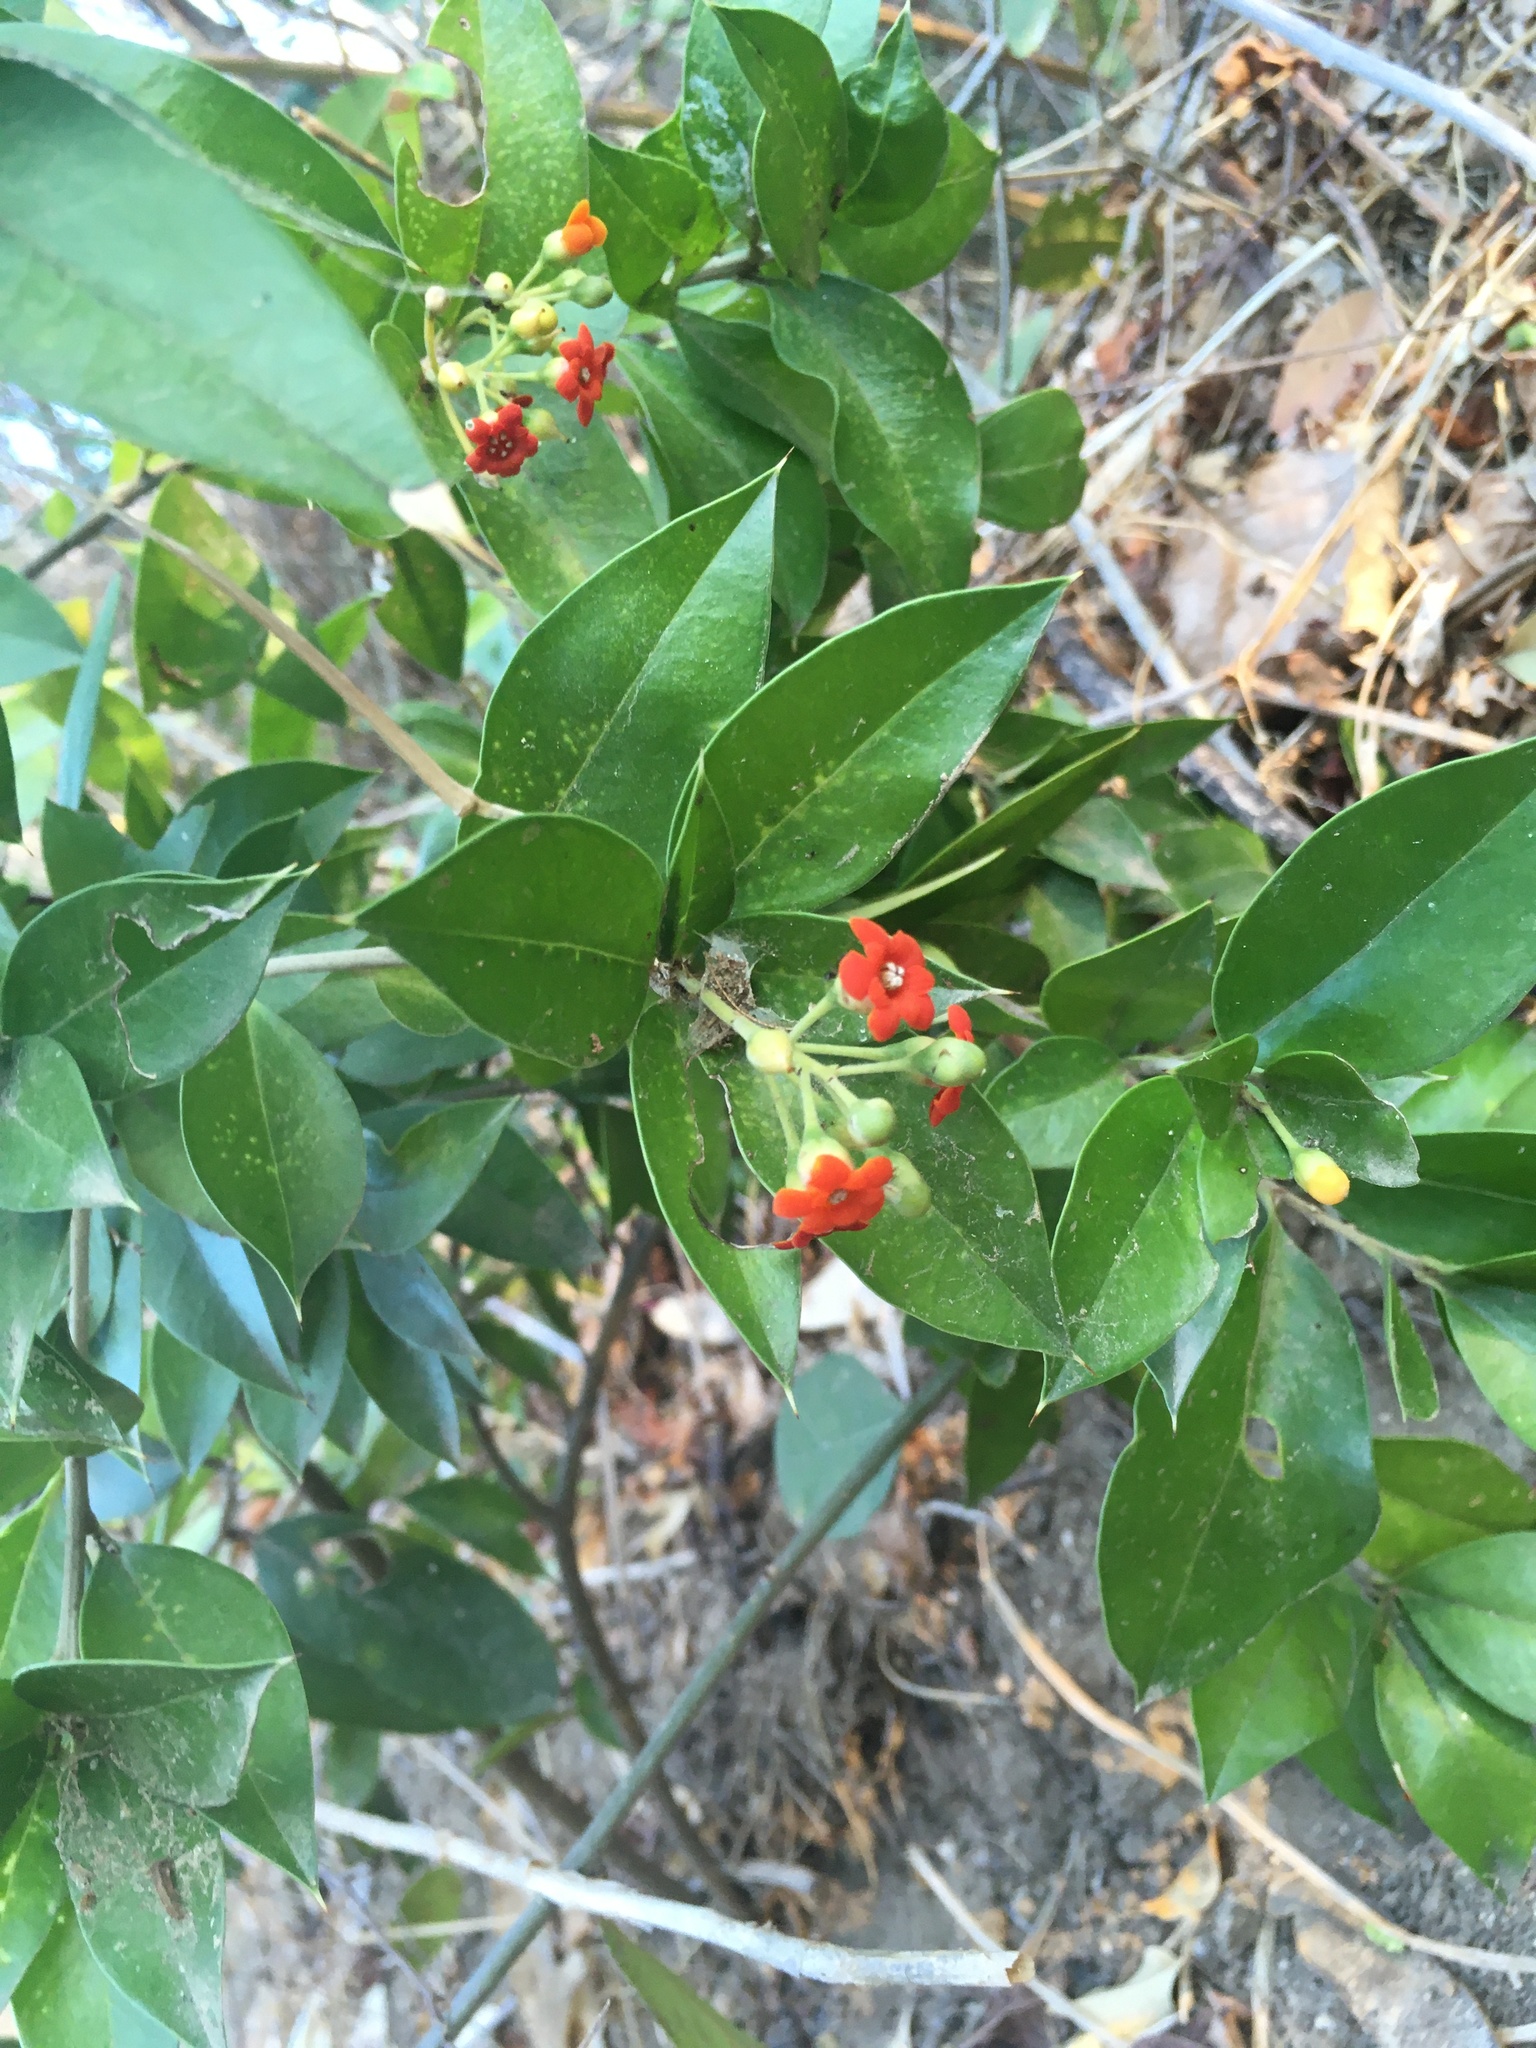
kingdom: Plantae
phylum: Tracheophyta
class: Magnoliopsida
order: Ericales
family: Primulaceae
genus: Bonellia
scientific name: Bonellia macrocarpa
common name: Primrose
